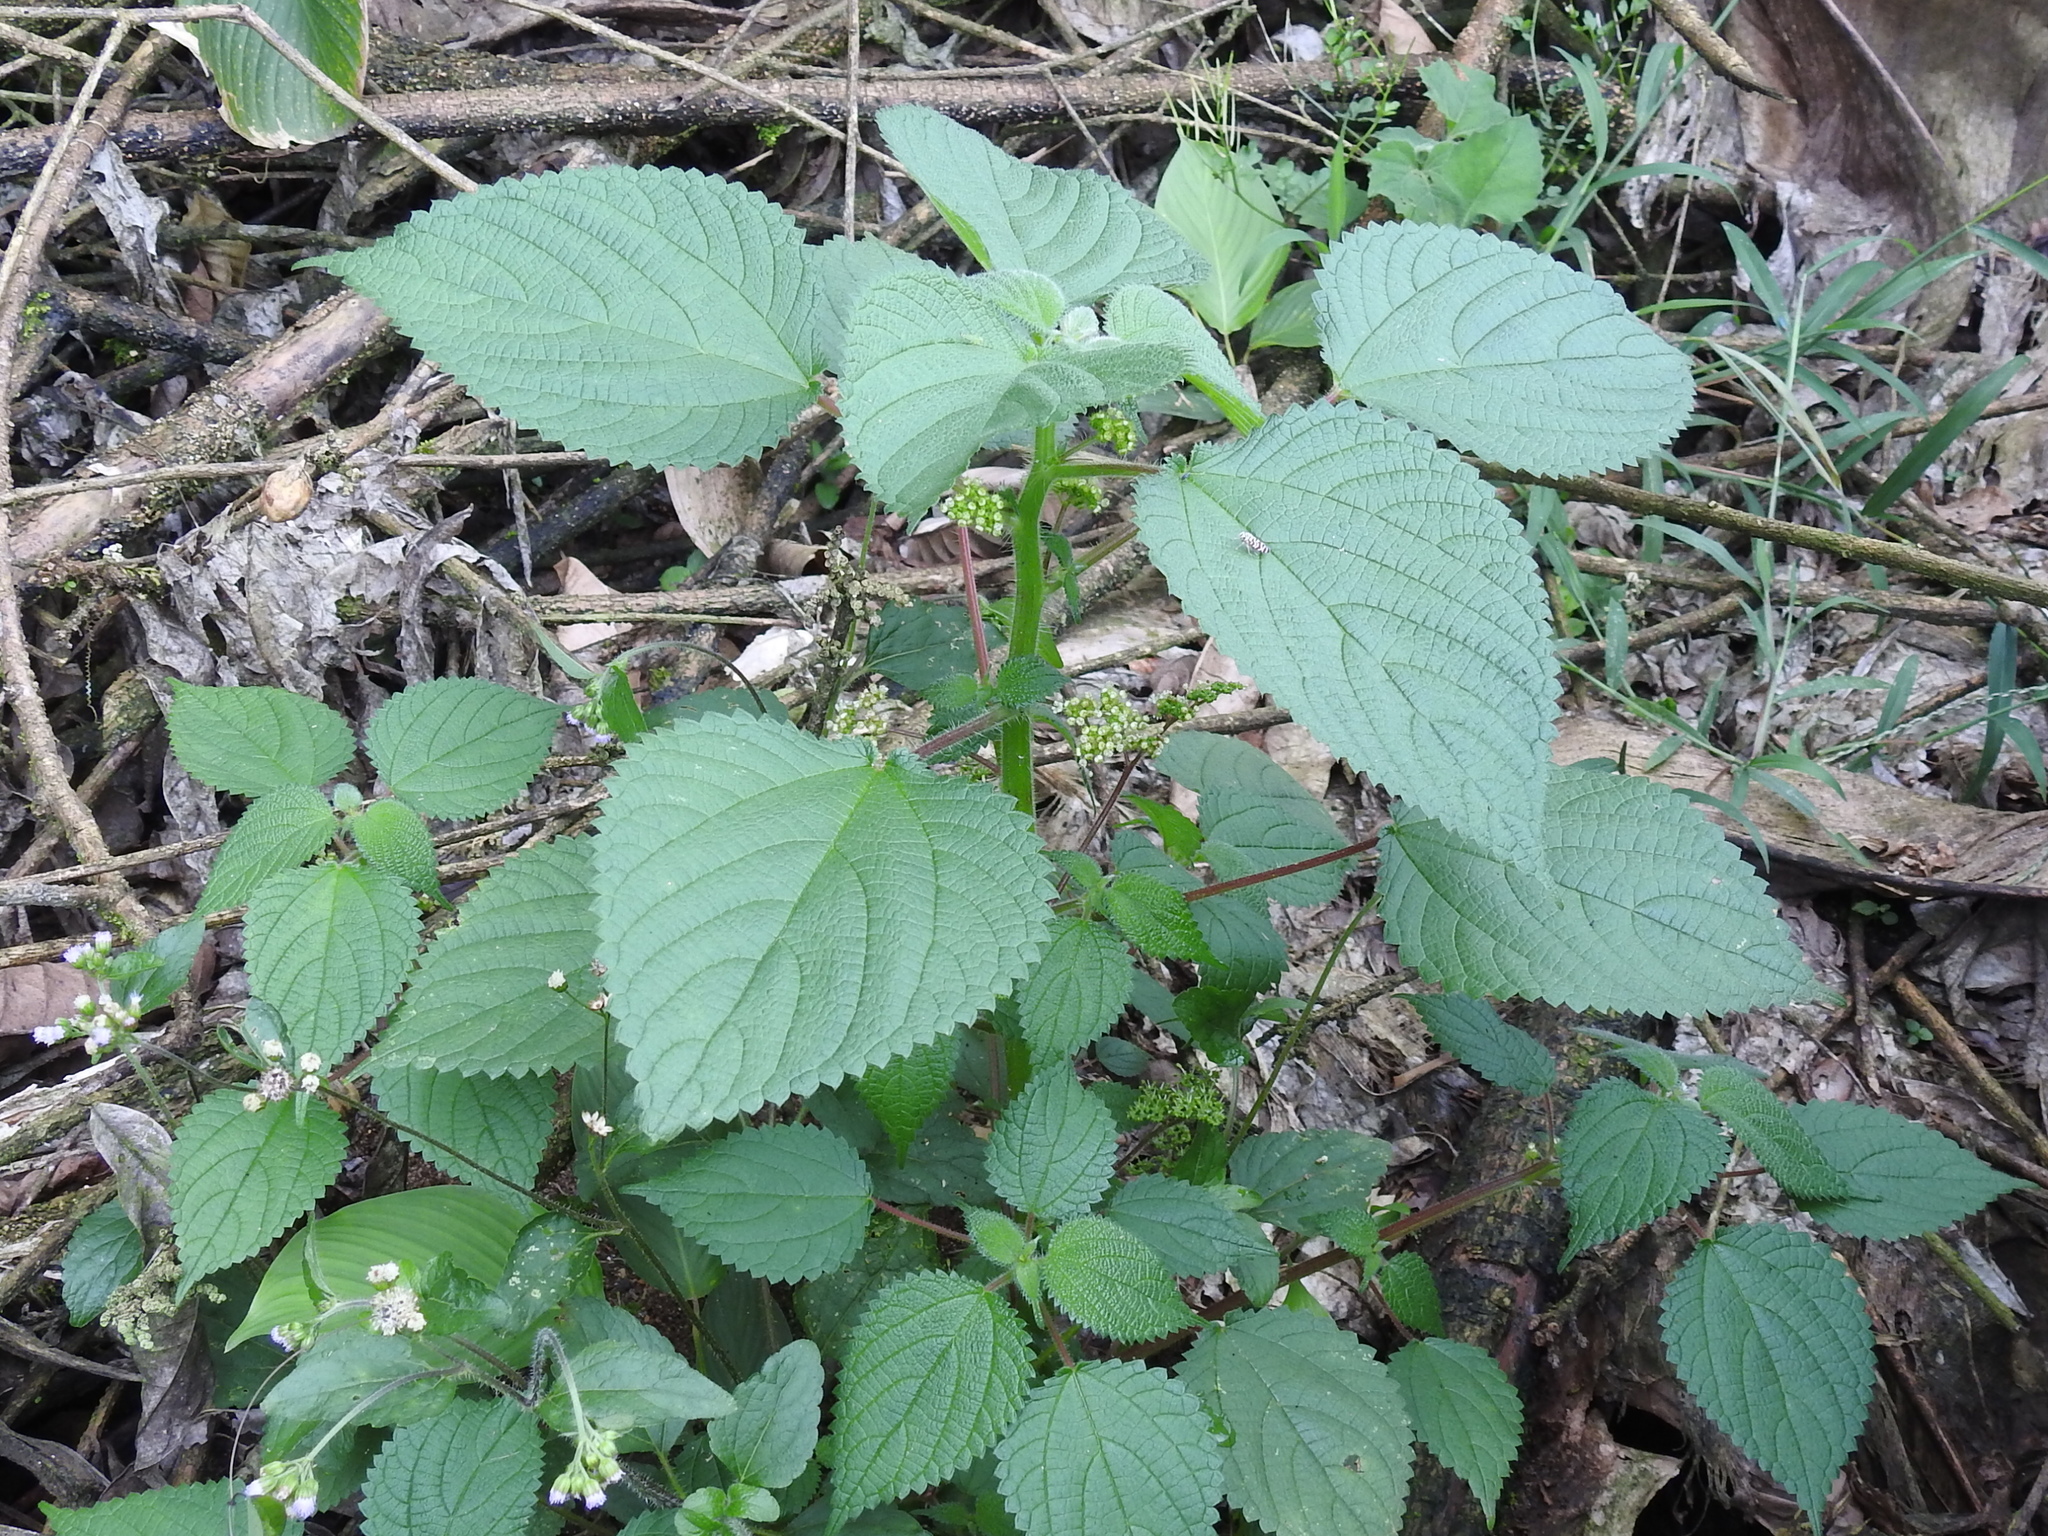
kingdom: Plantae
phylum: Tracheophyta
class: Magnoliopsida
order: Rosales
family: Urticaceae
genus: Laportea
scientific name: Laportea aestuans
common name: West indian woodnettle
